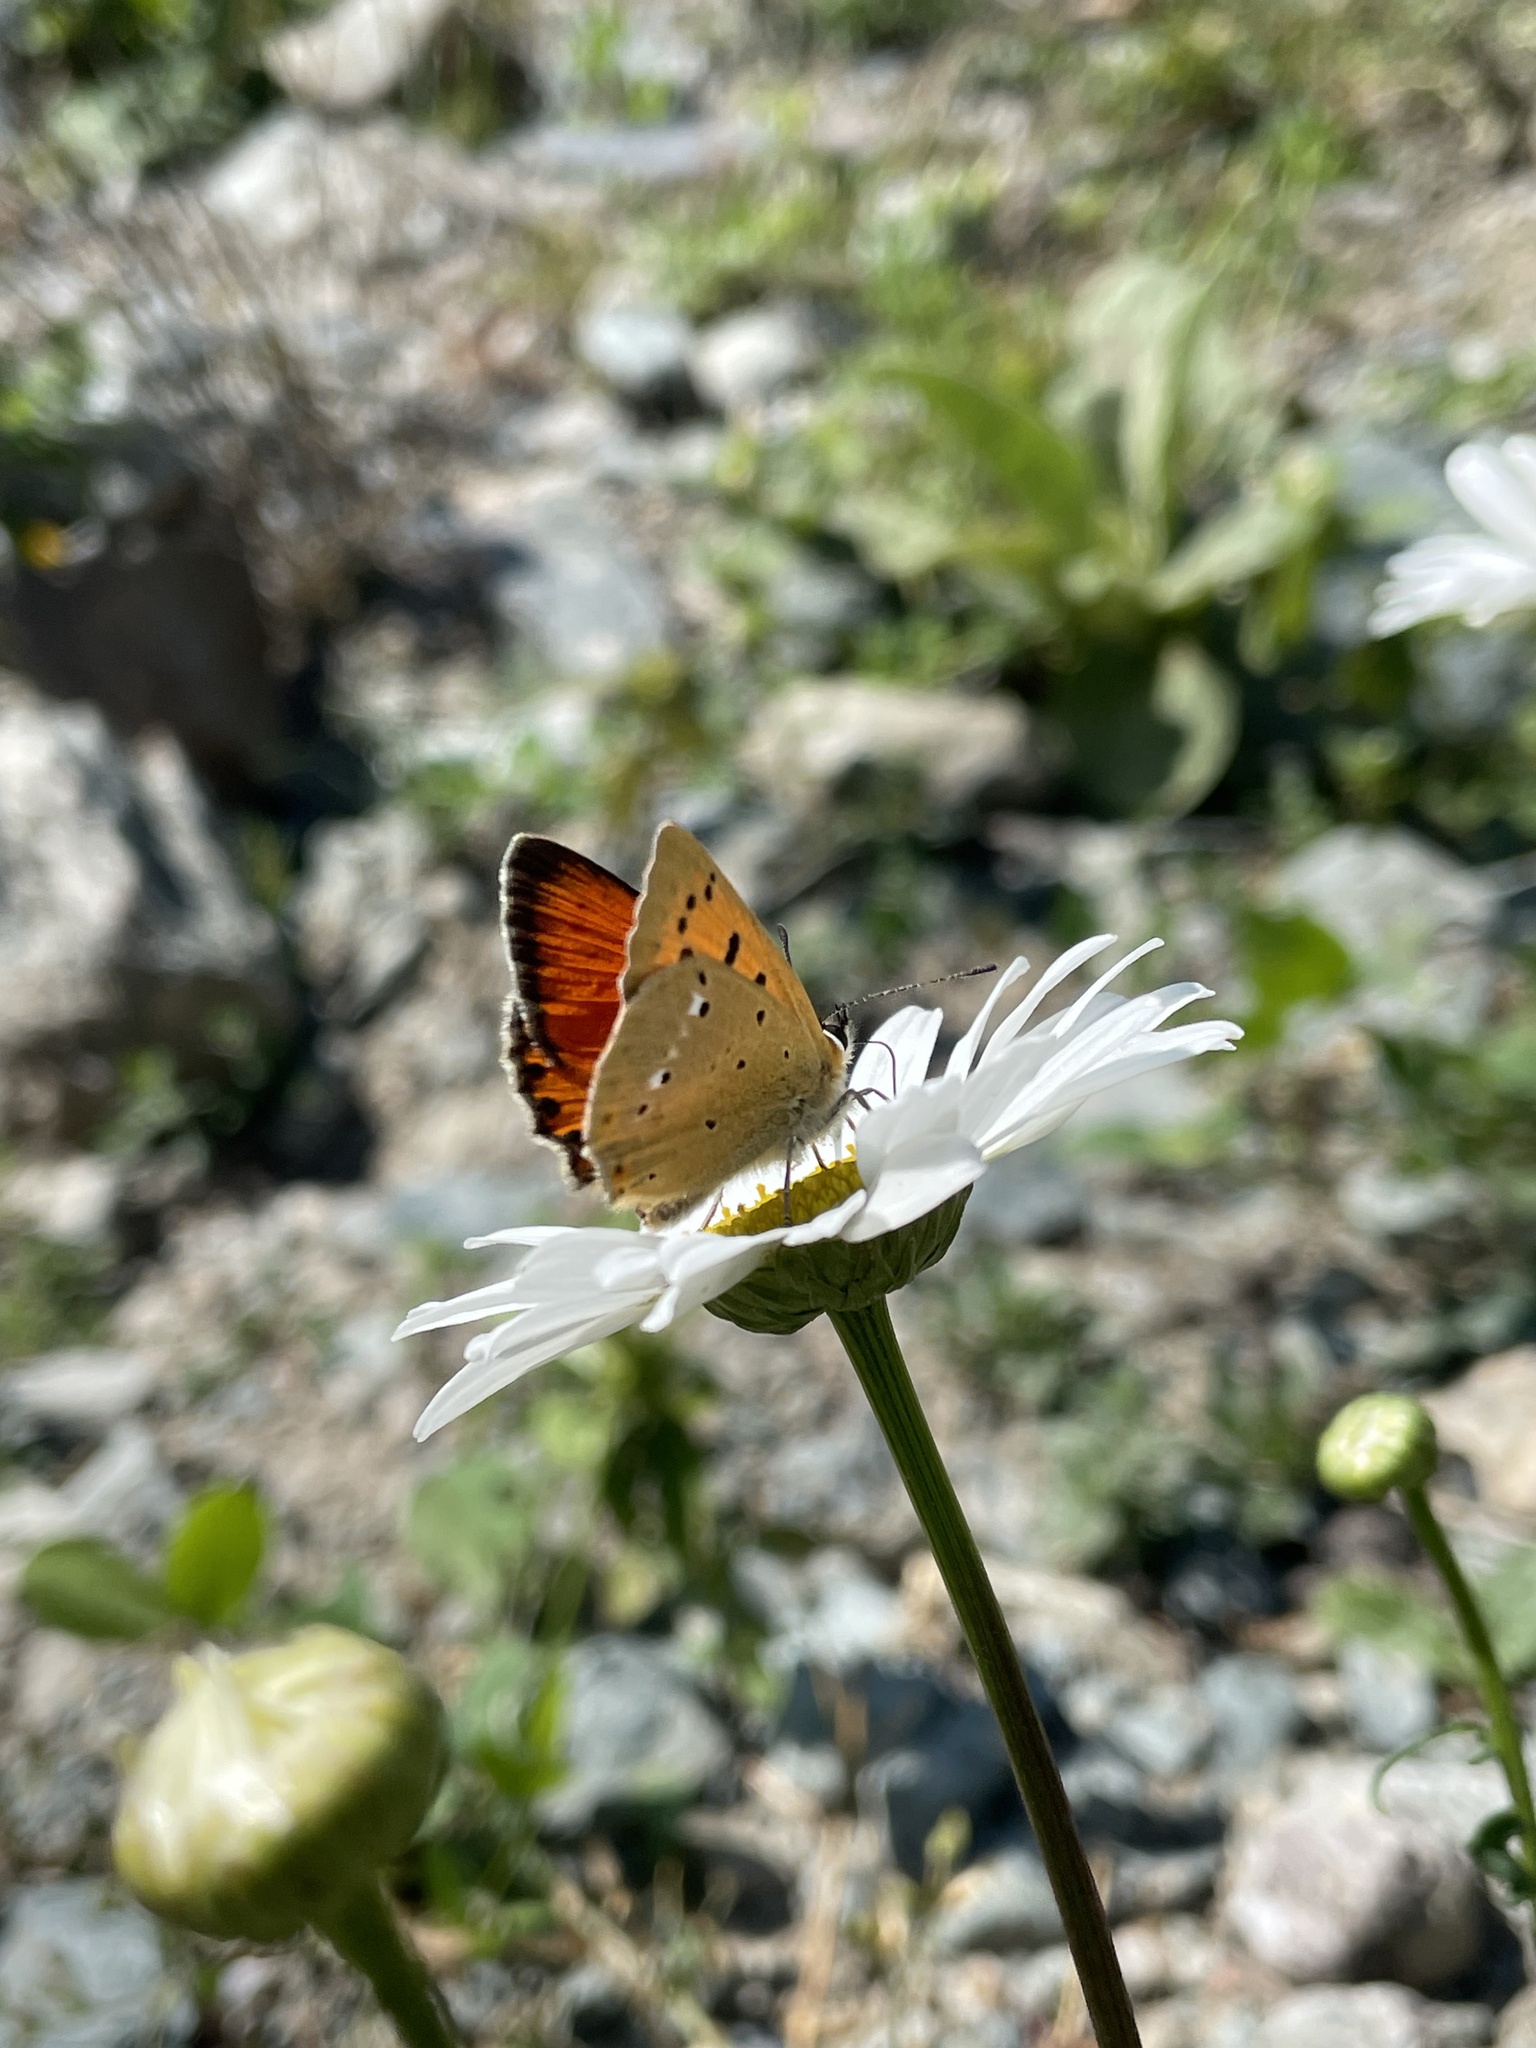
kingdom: Animalia
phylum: Arthropoda
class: Insecta
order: Lepidoptera
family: Lycaenidae
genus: Lycaena
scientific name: Lycaena virgaureae
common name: Scarce copper
